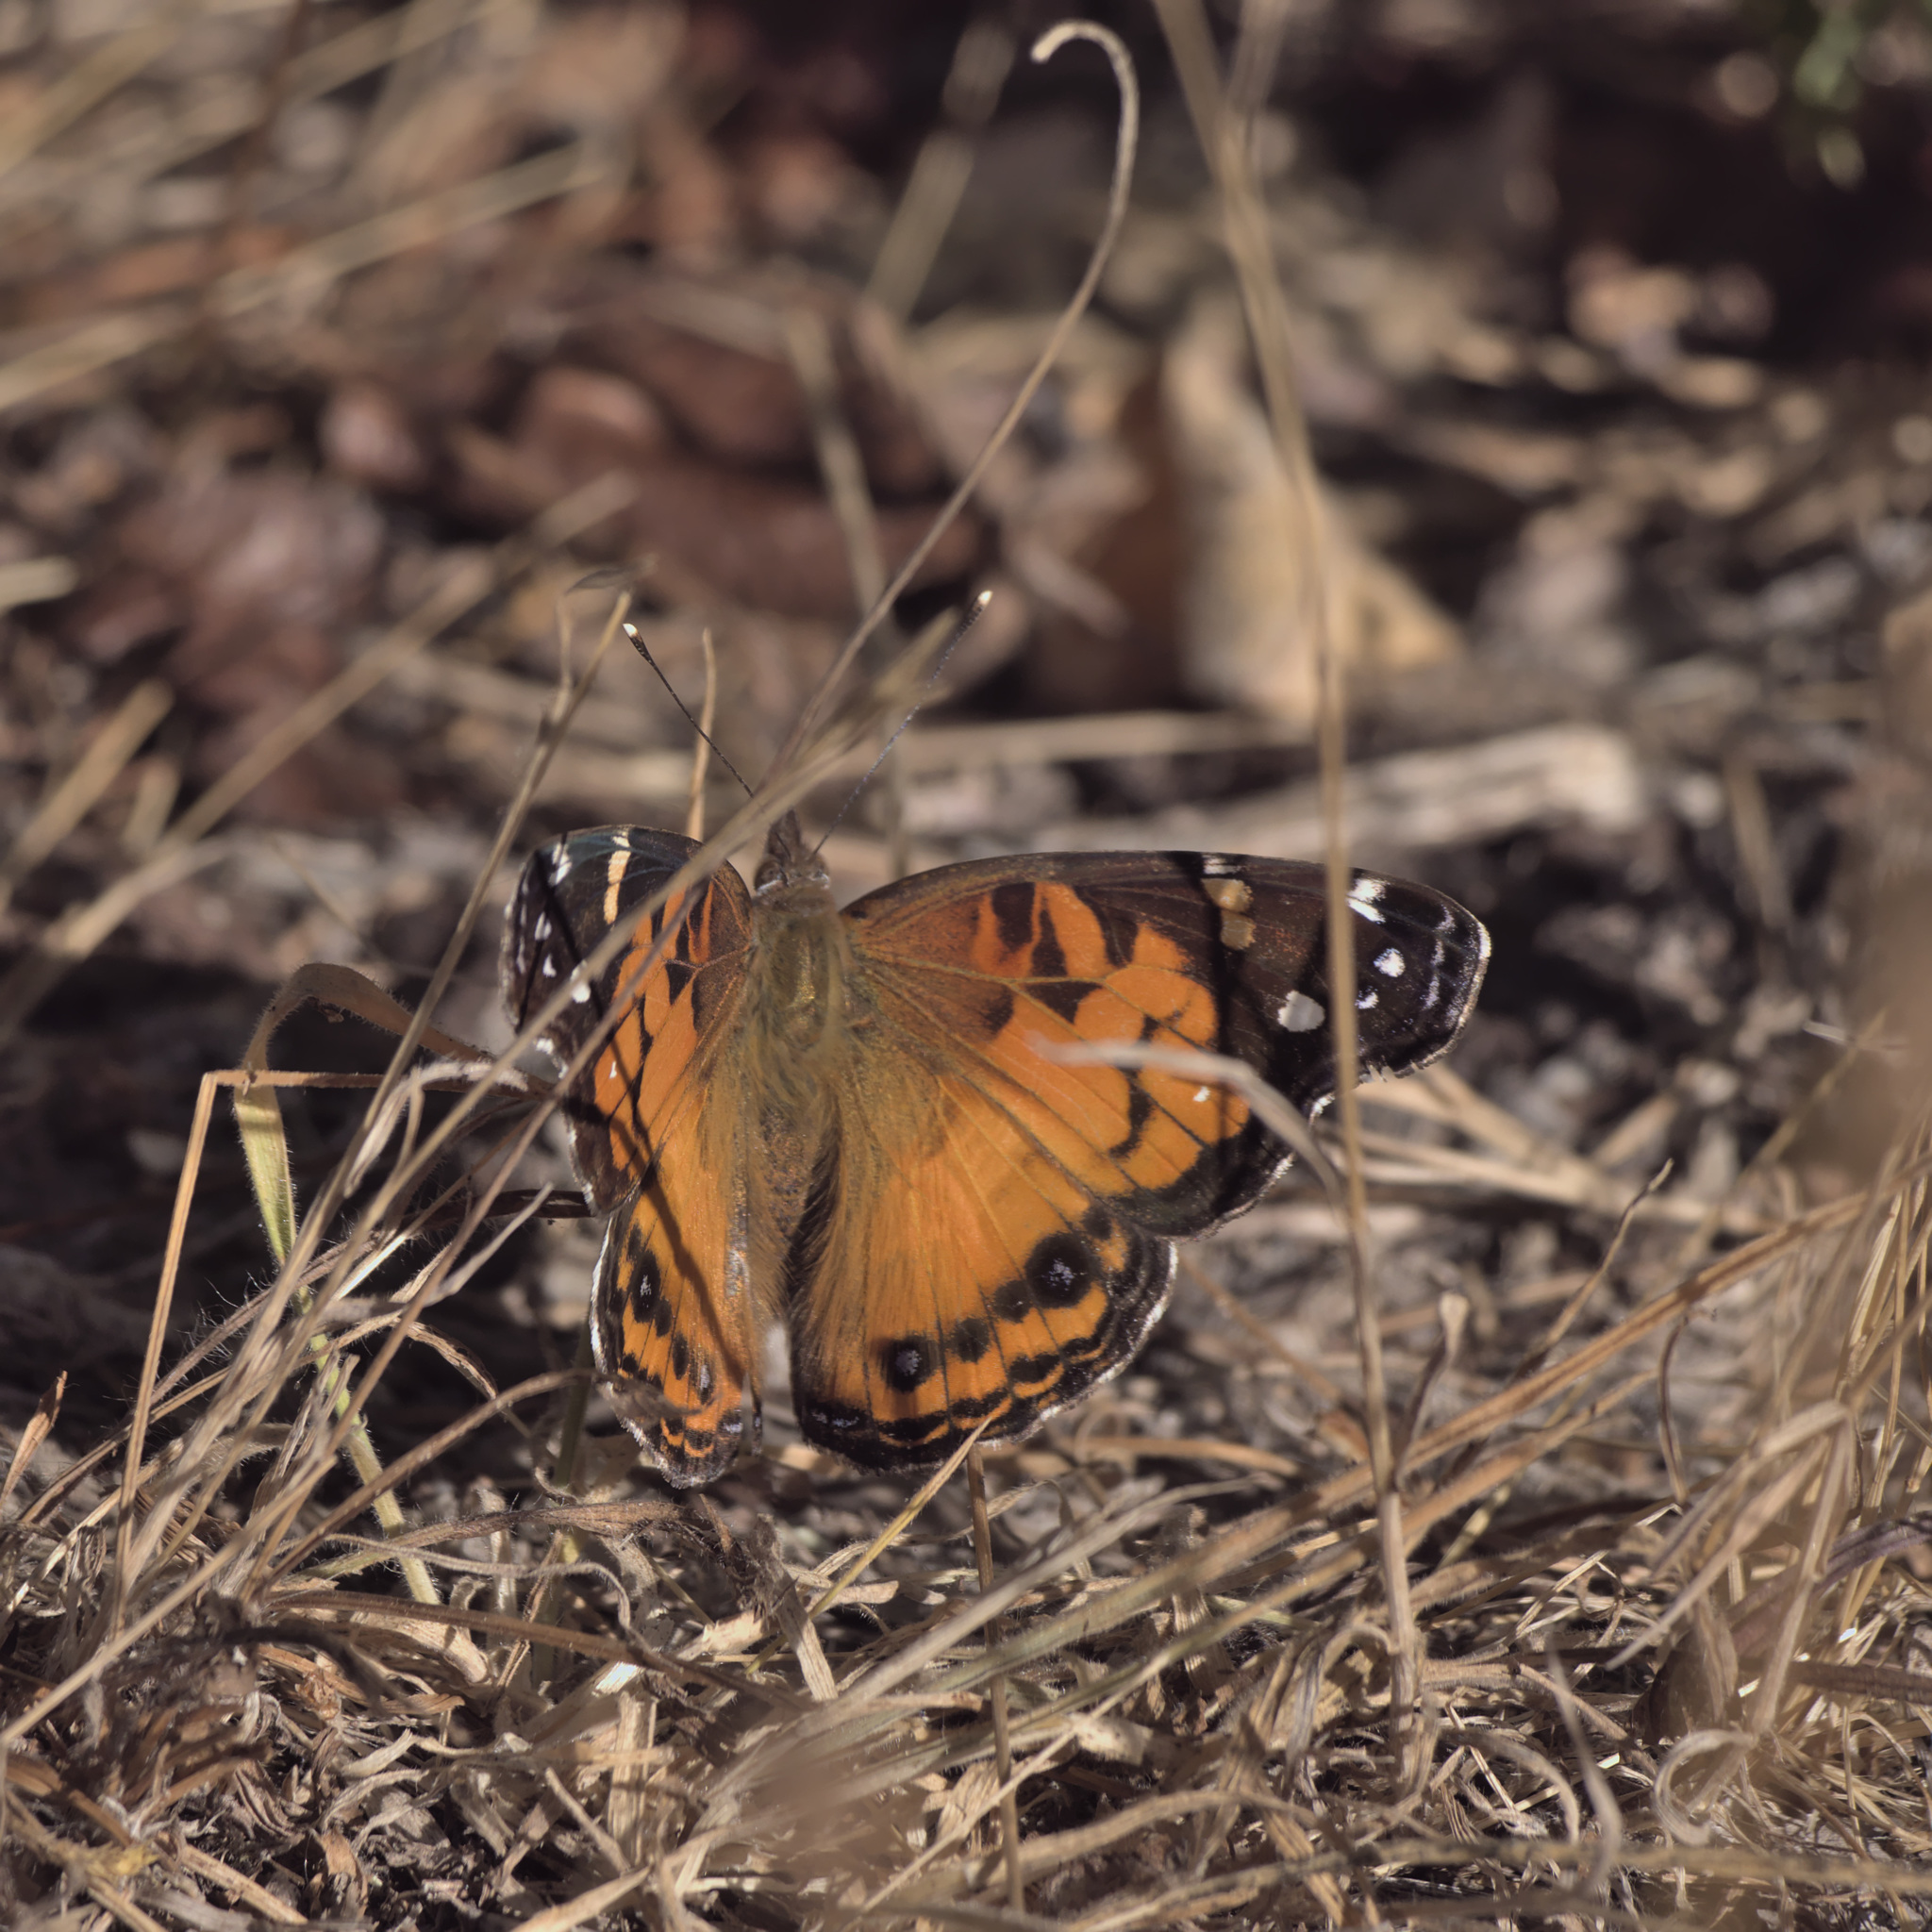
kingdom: Animalia
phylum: Arthropoda
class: Insecta
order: Lepidoptera
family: Nymphalidae
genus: Vanessa
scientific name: Vanessa virginiensis
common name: American lady
